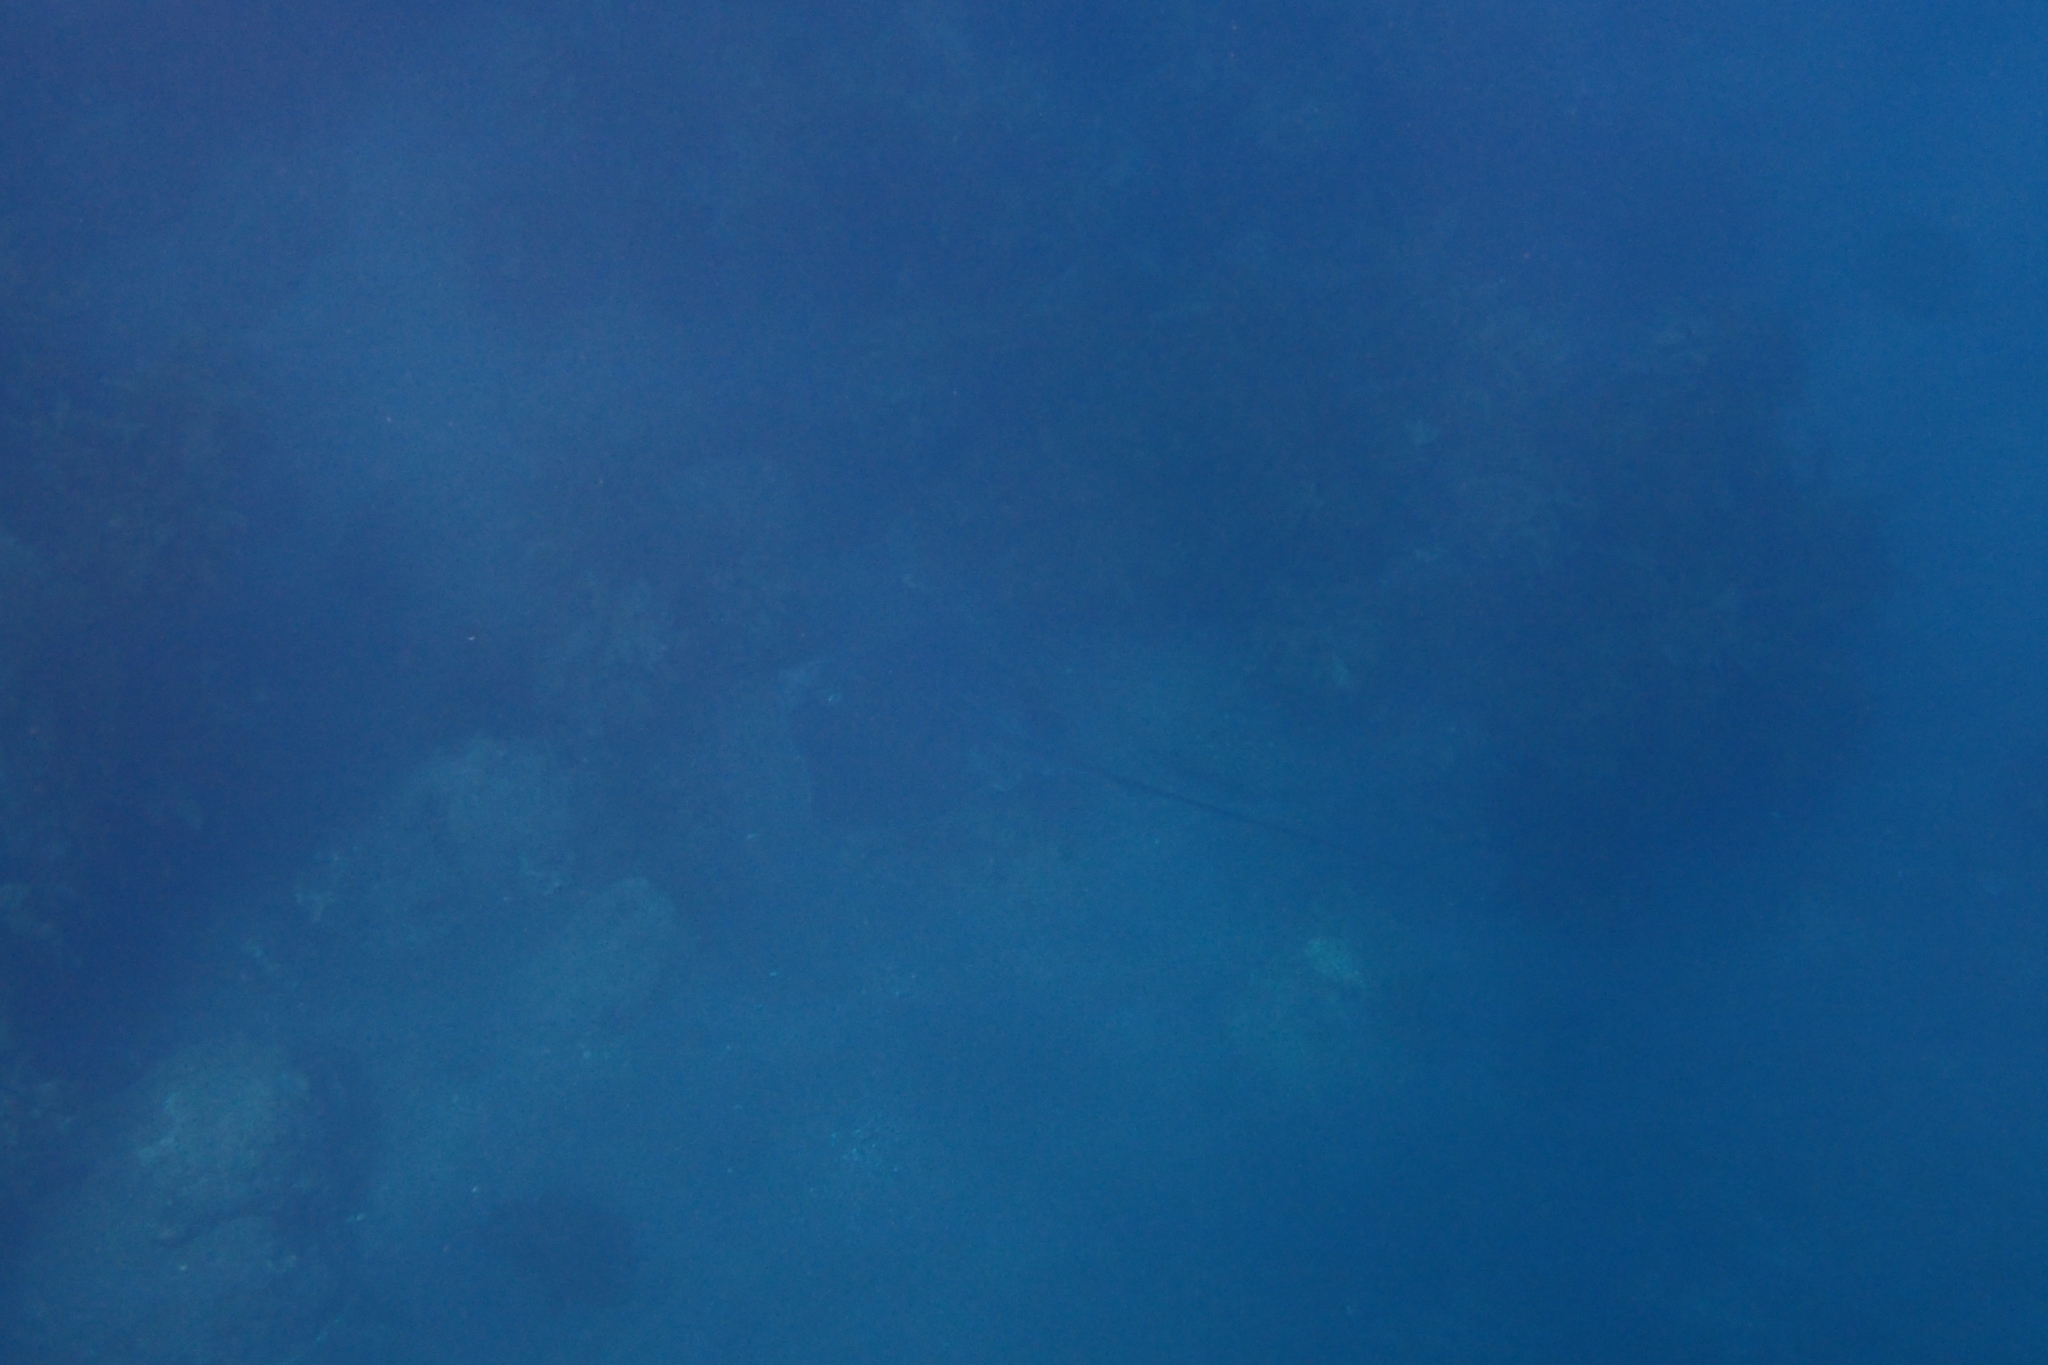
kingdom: Animalia
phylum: Chordata
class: Elasmobranchii
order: Myliobatiformes
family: Dasyatidae
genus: Bathytoshia
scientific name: Bathytoshia lata
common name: Brown stingray
